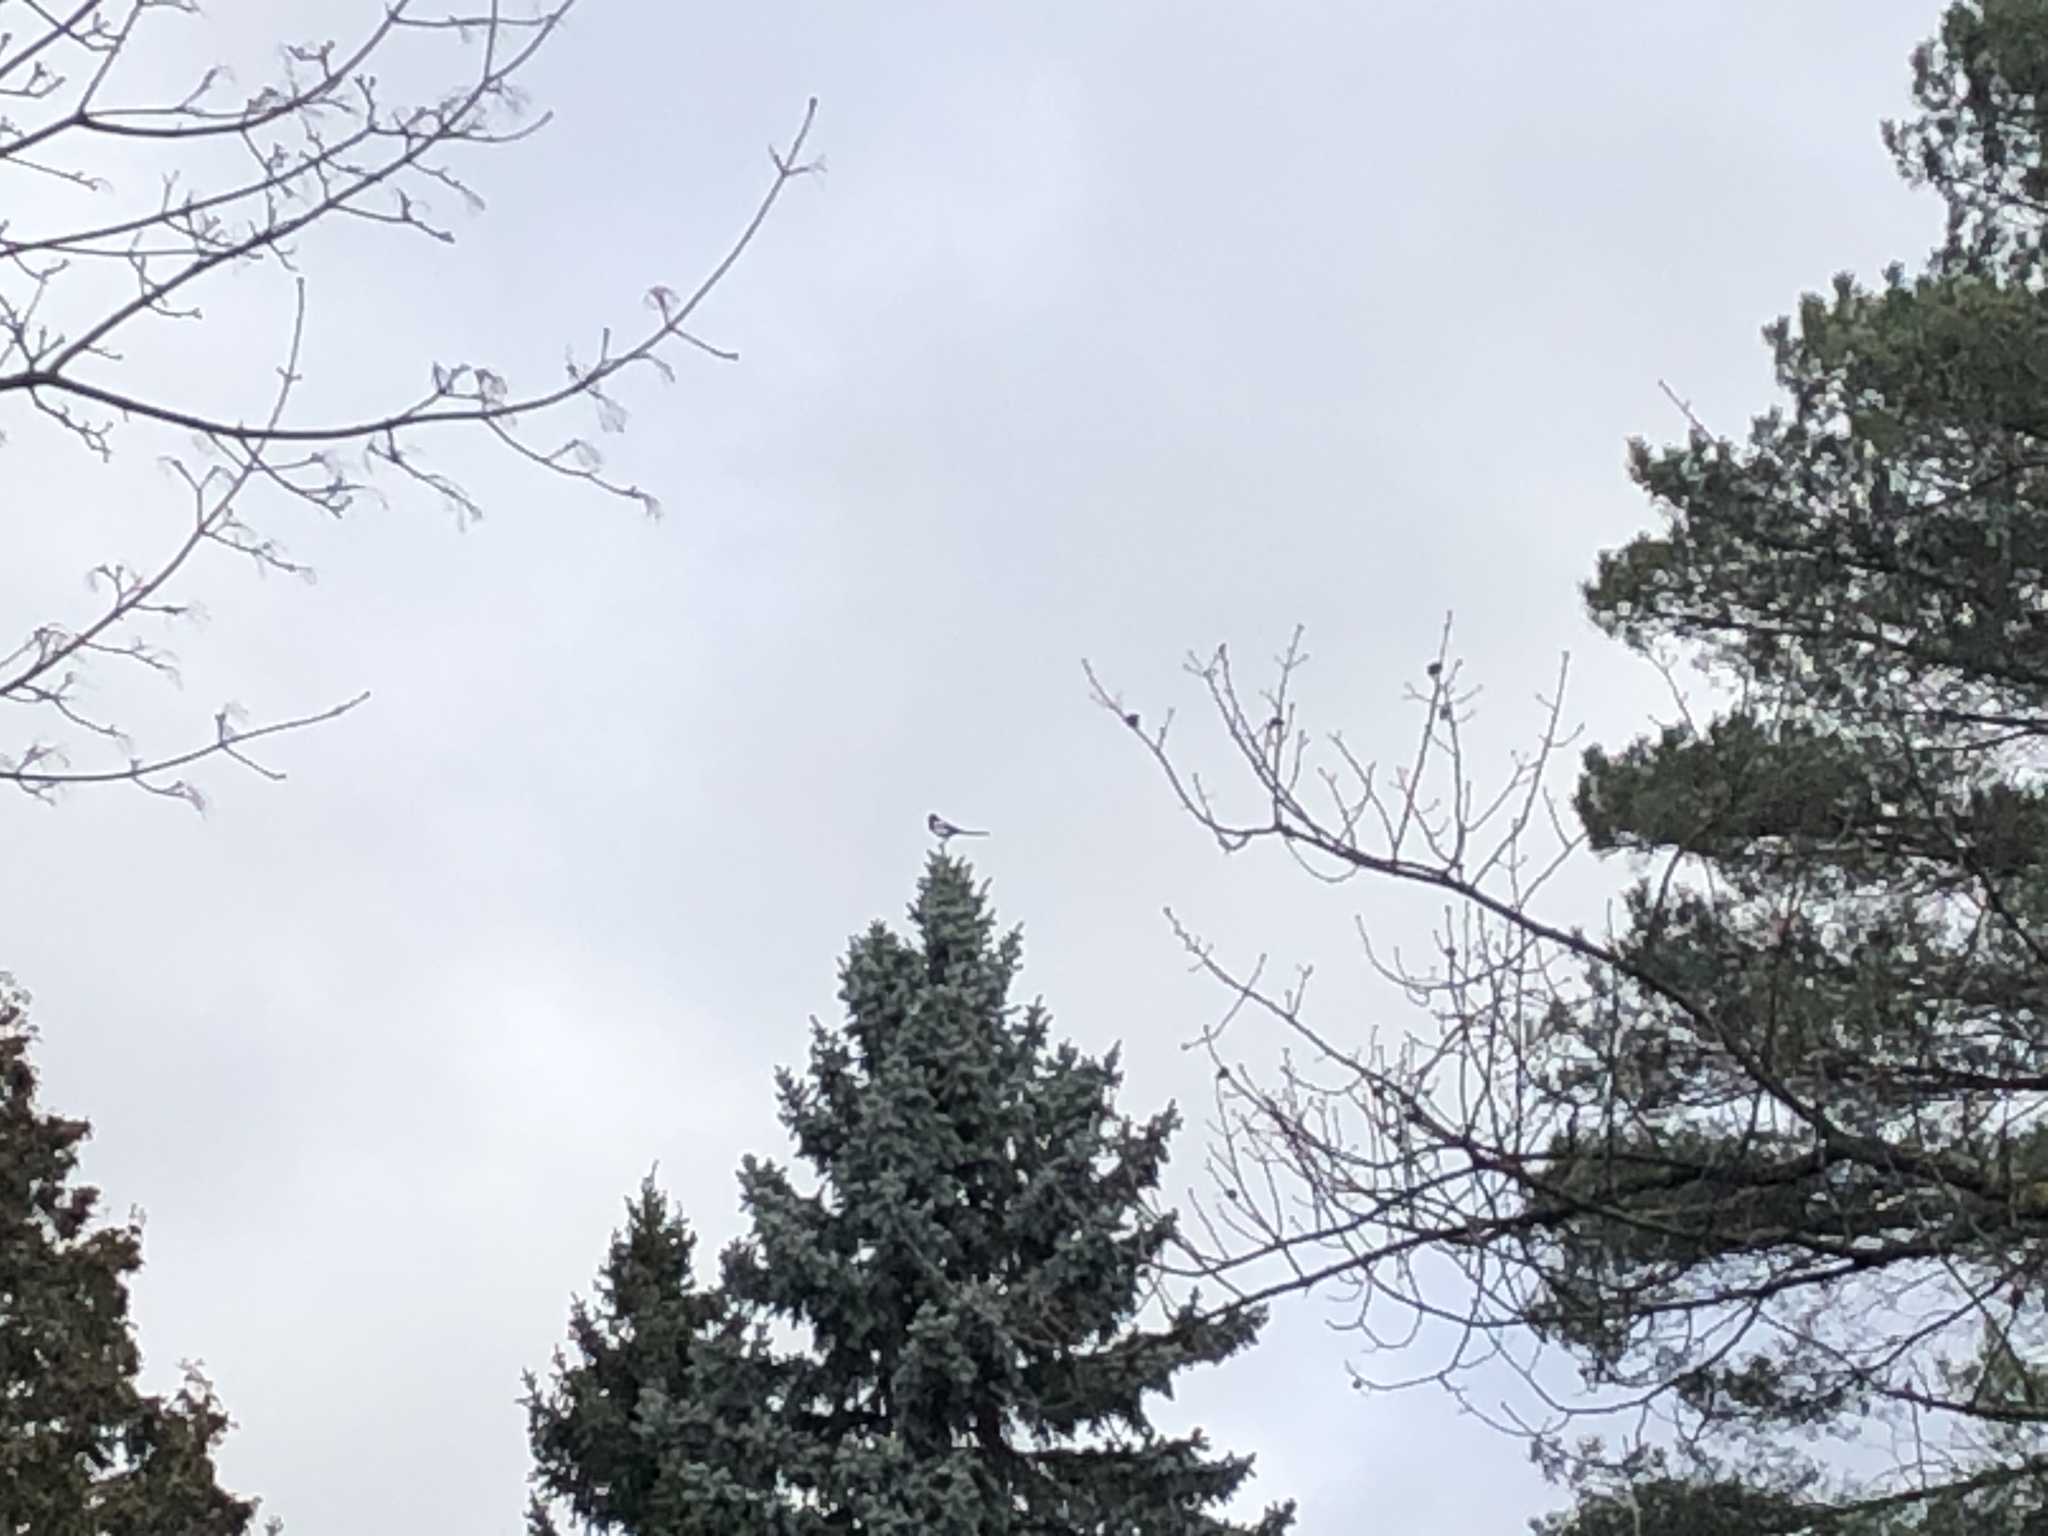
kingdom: Animalia
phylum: Chordata
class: Aves
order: Passeriformes
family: Corvidae
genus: Pica
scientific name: Pica pica
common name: Eurasian magpie
